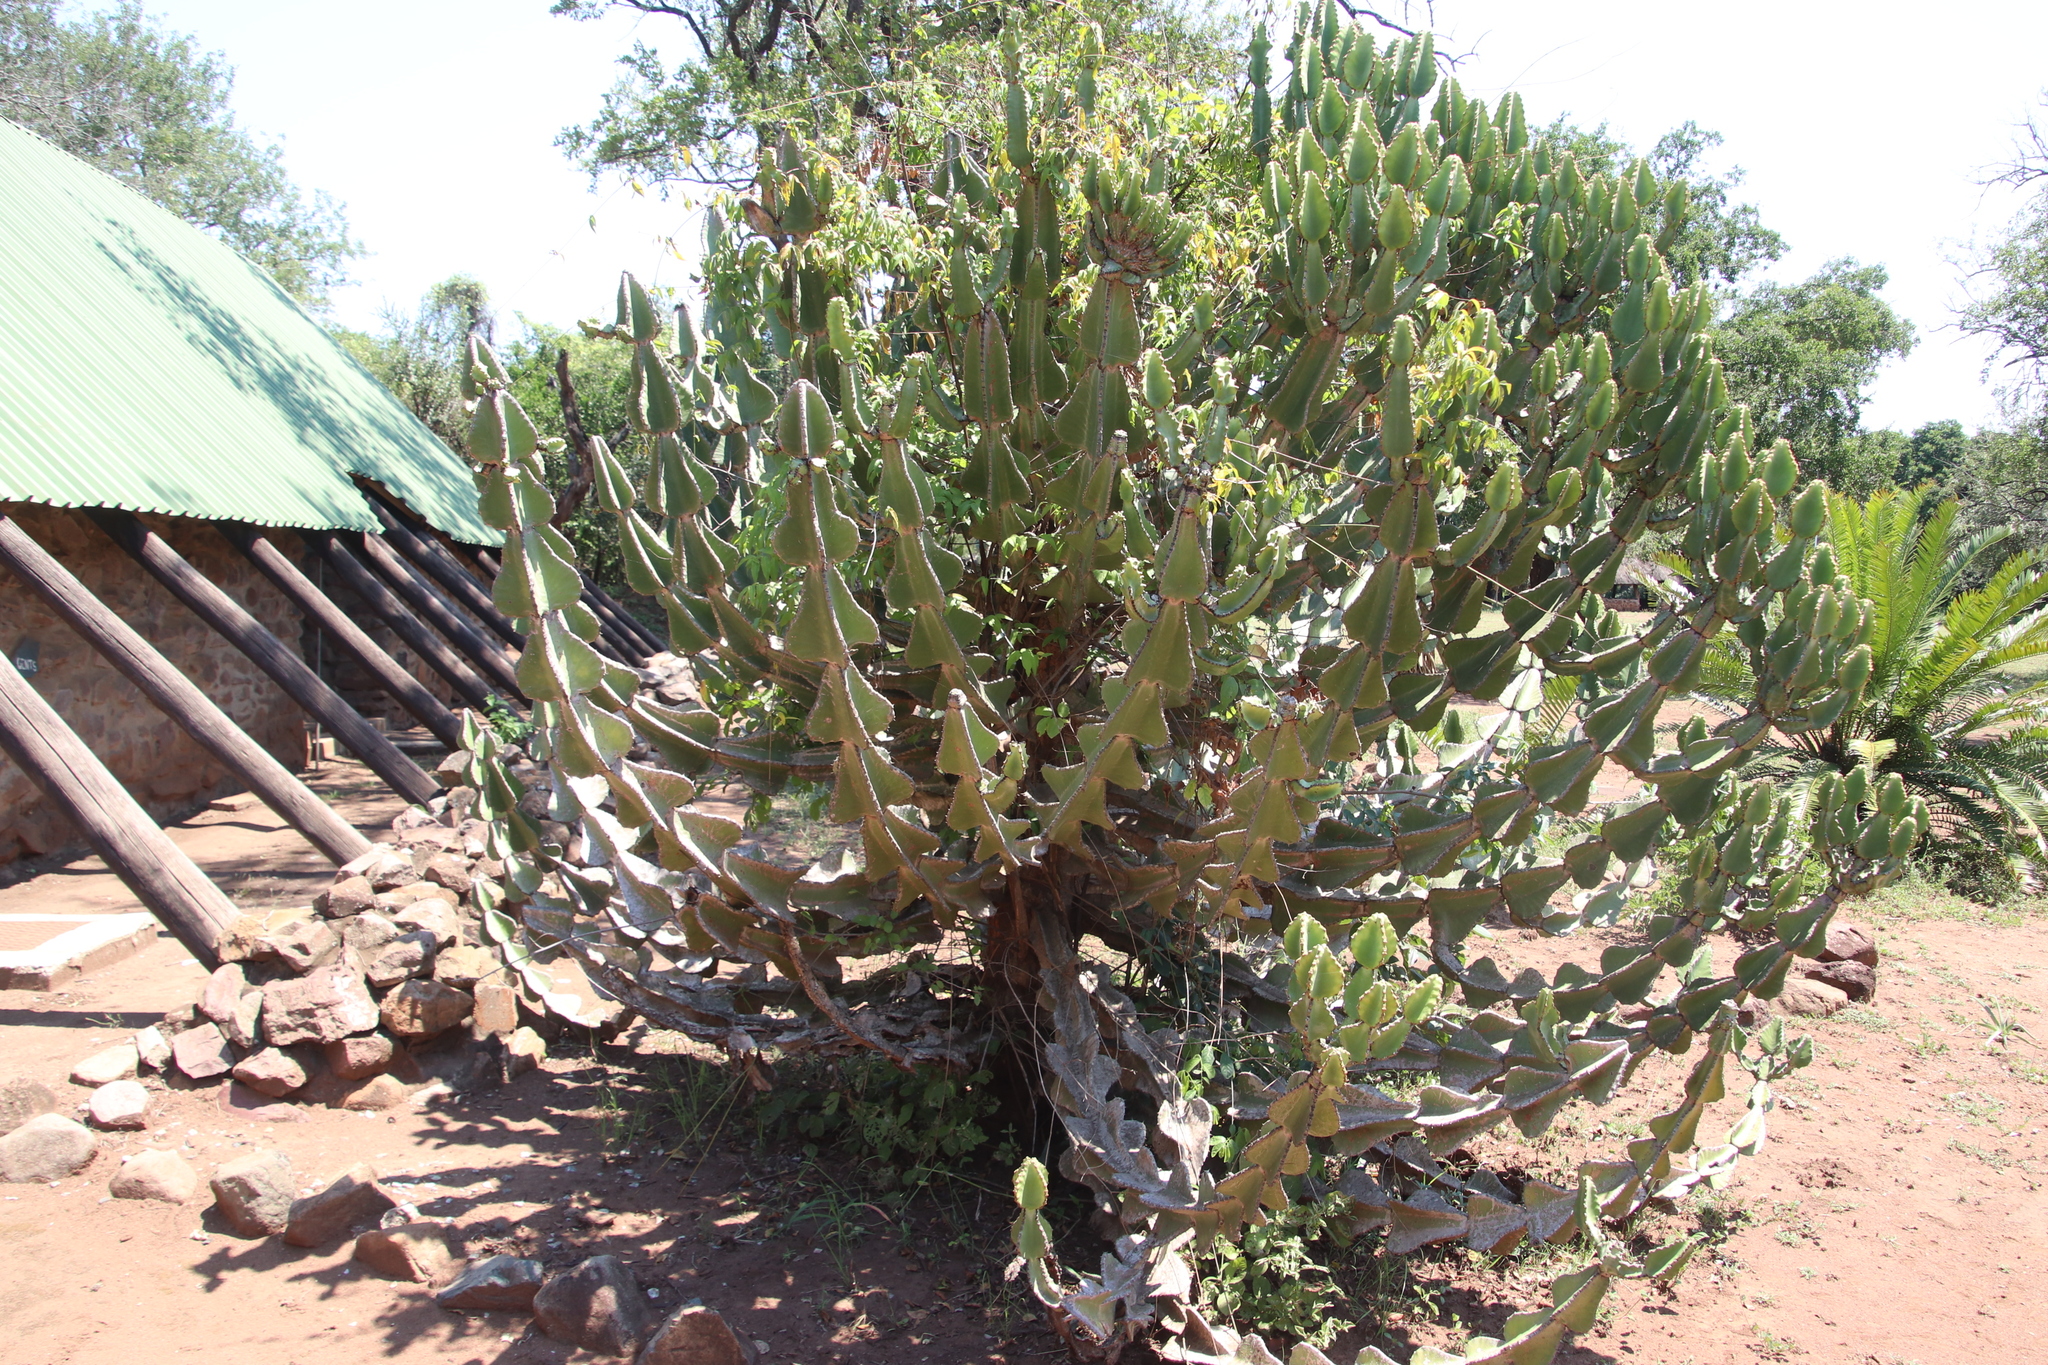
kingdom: Plantae
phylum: Tracheophyta
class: Magnoliopsida
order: Malpighiales
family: Euphorbiaceae
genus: Euphorbia
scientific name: Euphorbia cooperi
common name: Candelabra tree
